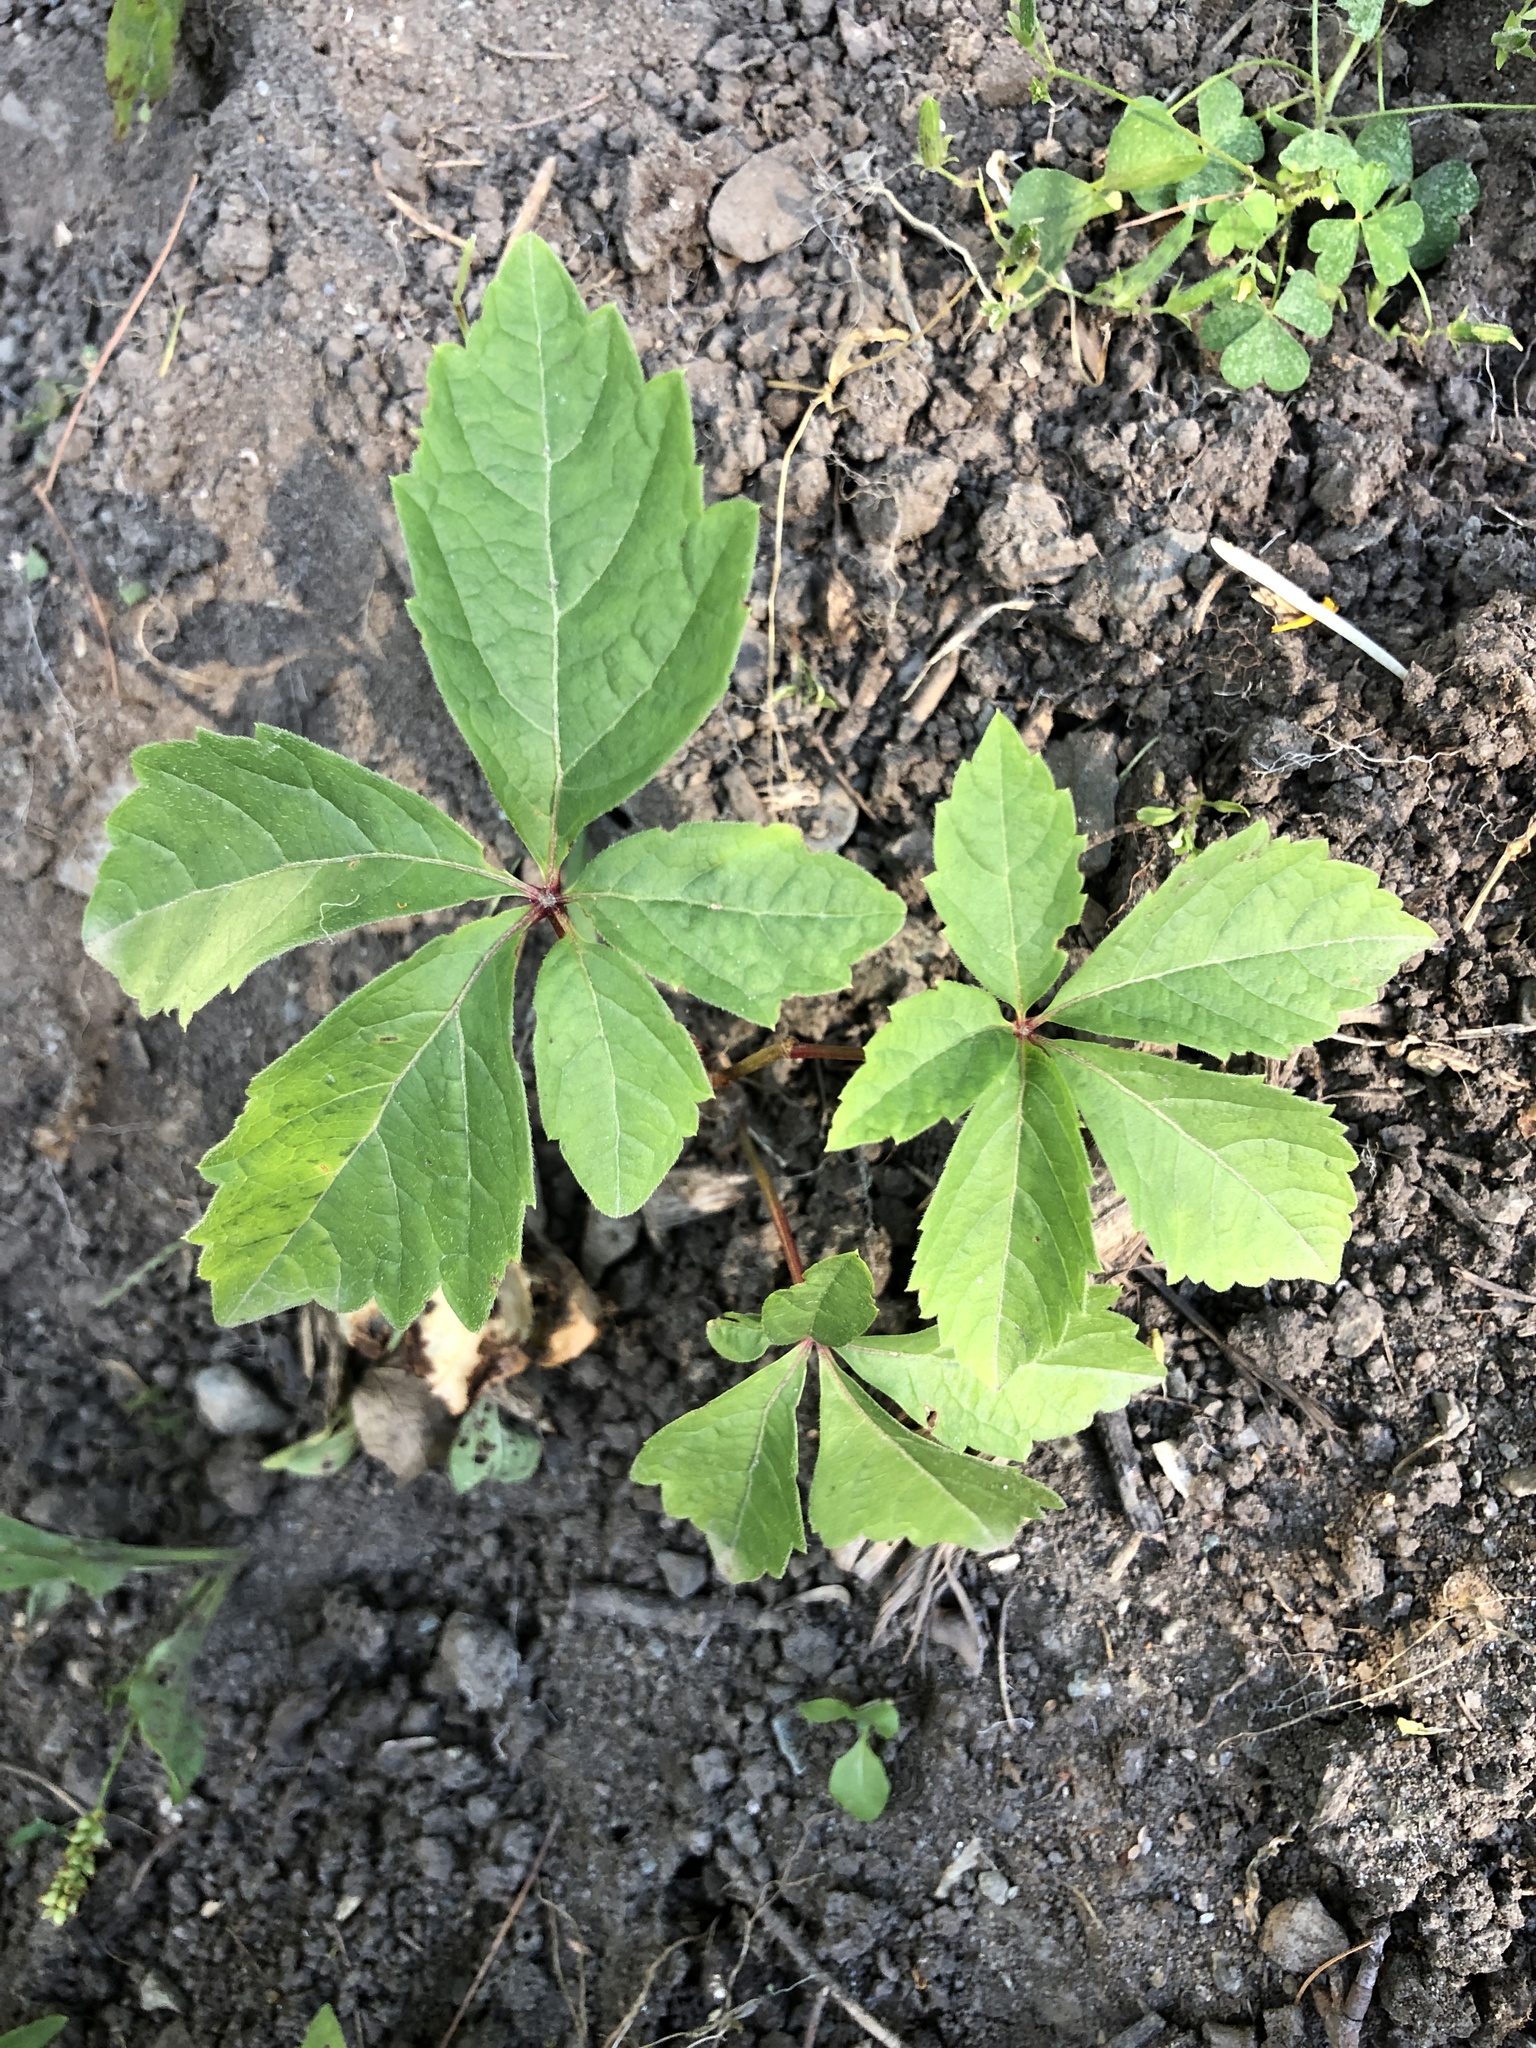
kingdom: Plantae
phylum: Tracheophyta
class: Magnoliopsida
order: Vitales
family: Vitaceae
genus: Parthenocissus
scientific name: Parthenocissus quinquefolia
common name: Virginia-creeper
